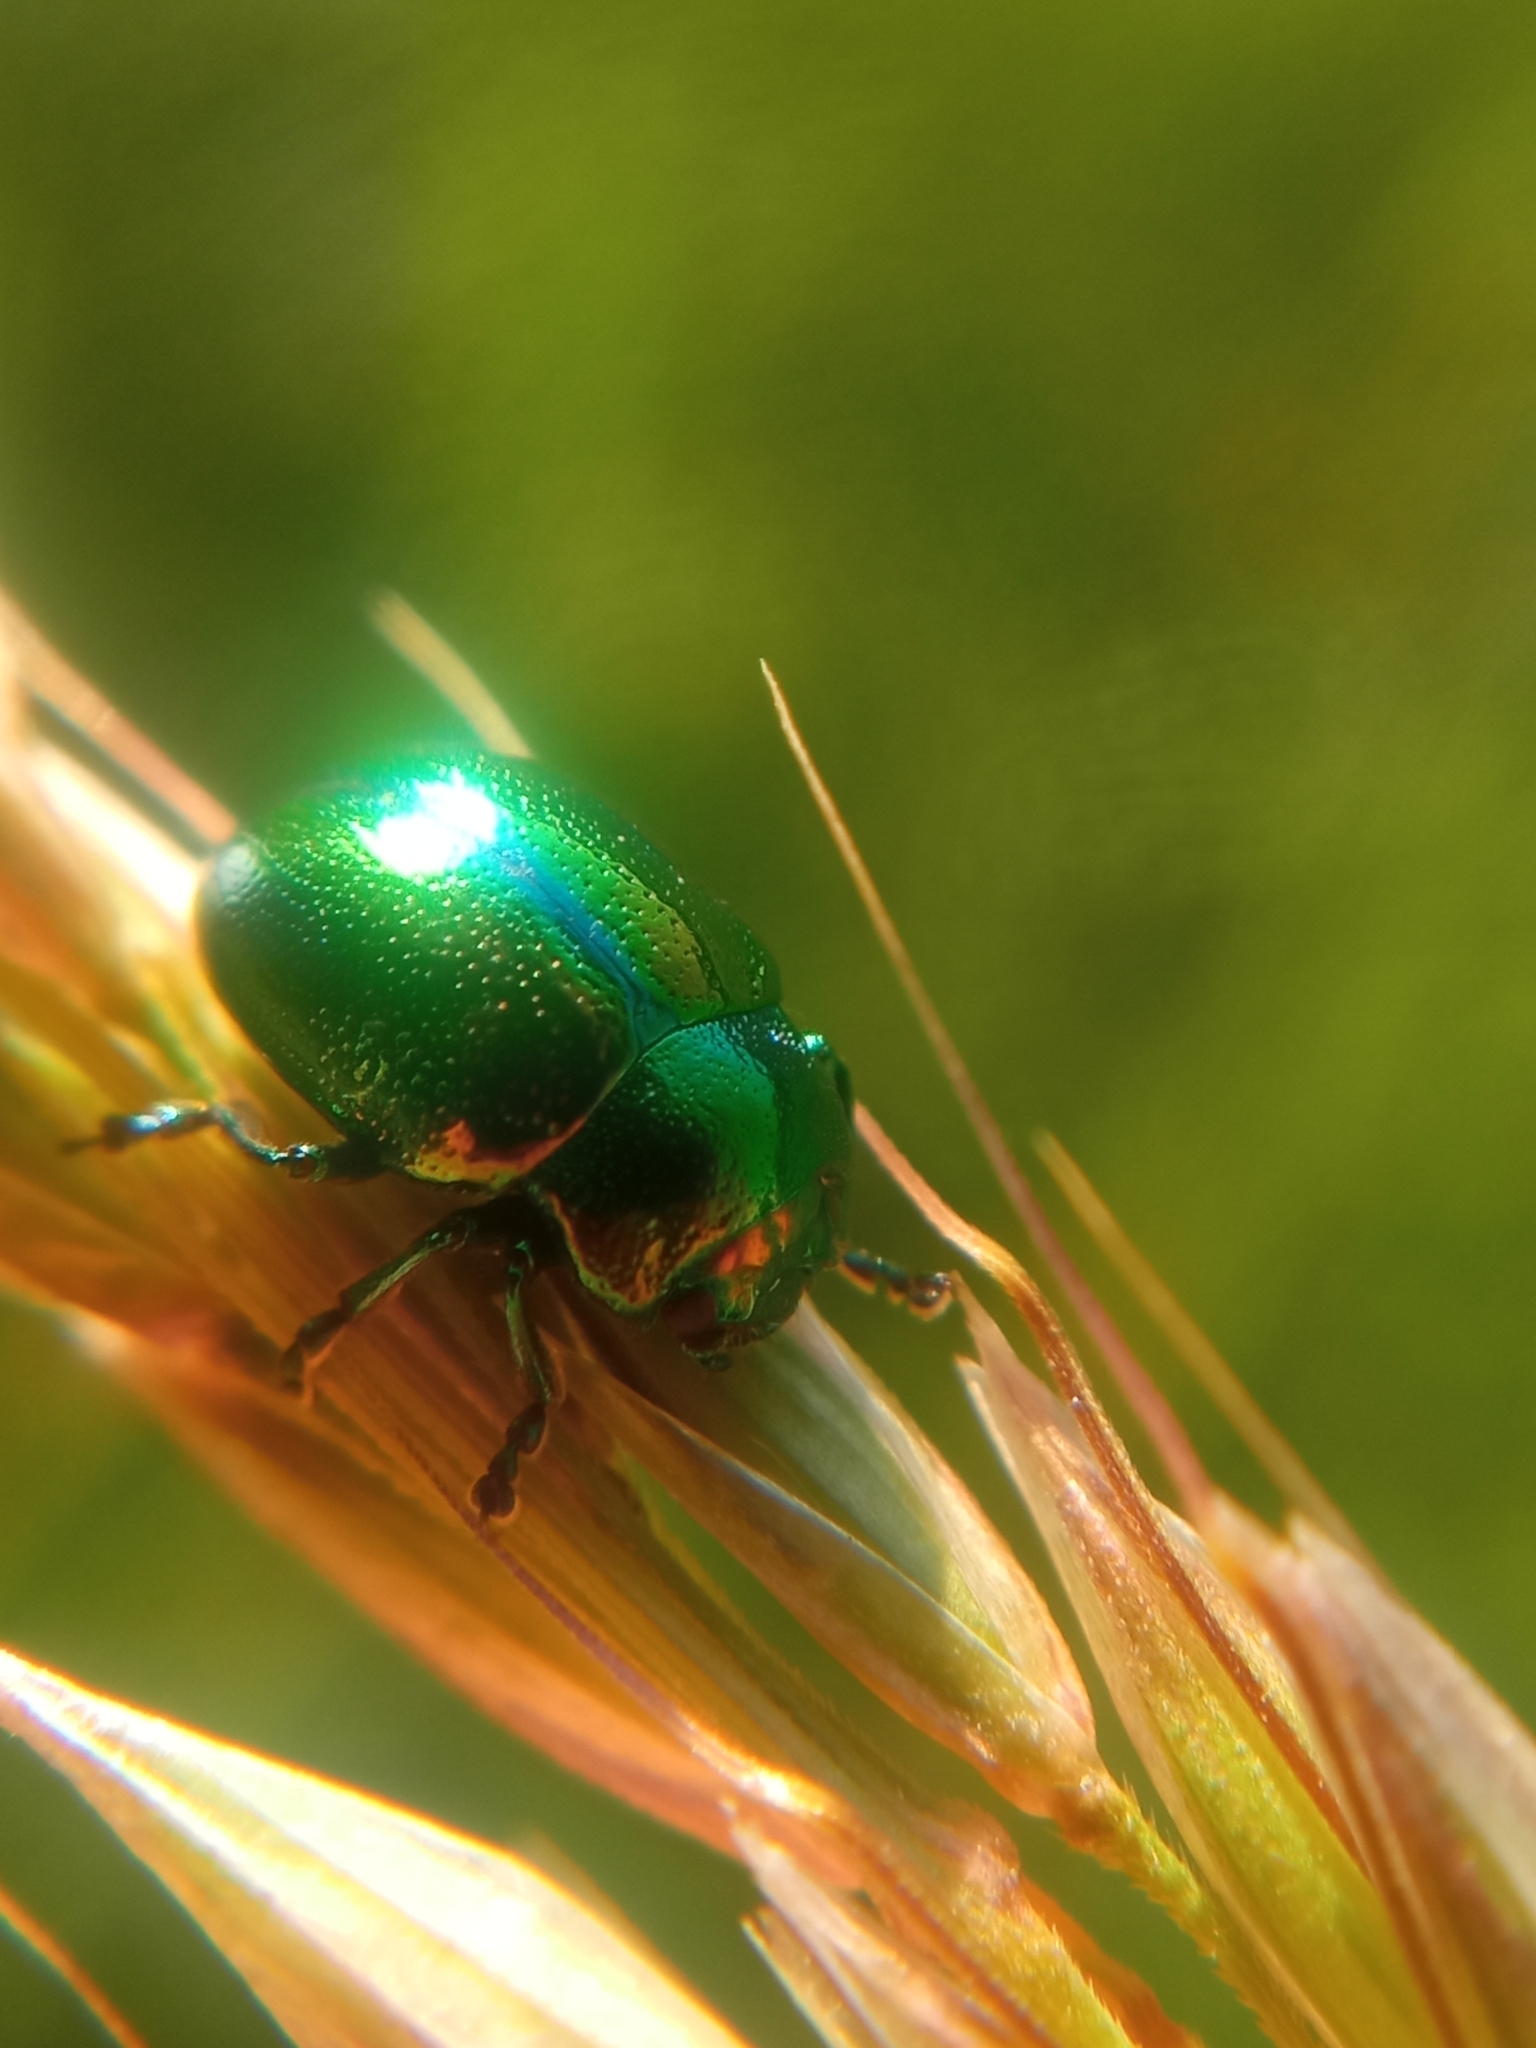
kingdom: Animalia
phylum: Arthropoda
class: Insecta
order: Coleoptera
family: Chrysomelidae
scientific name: Chrysomelidae
